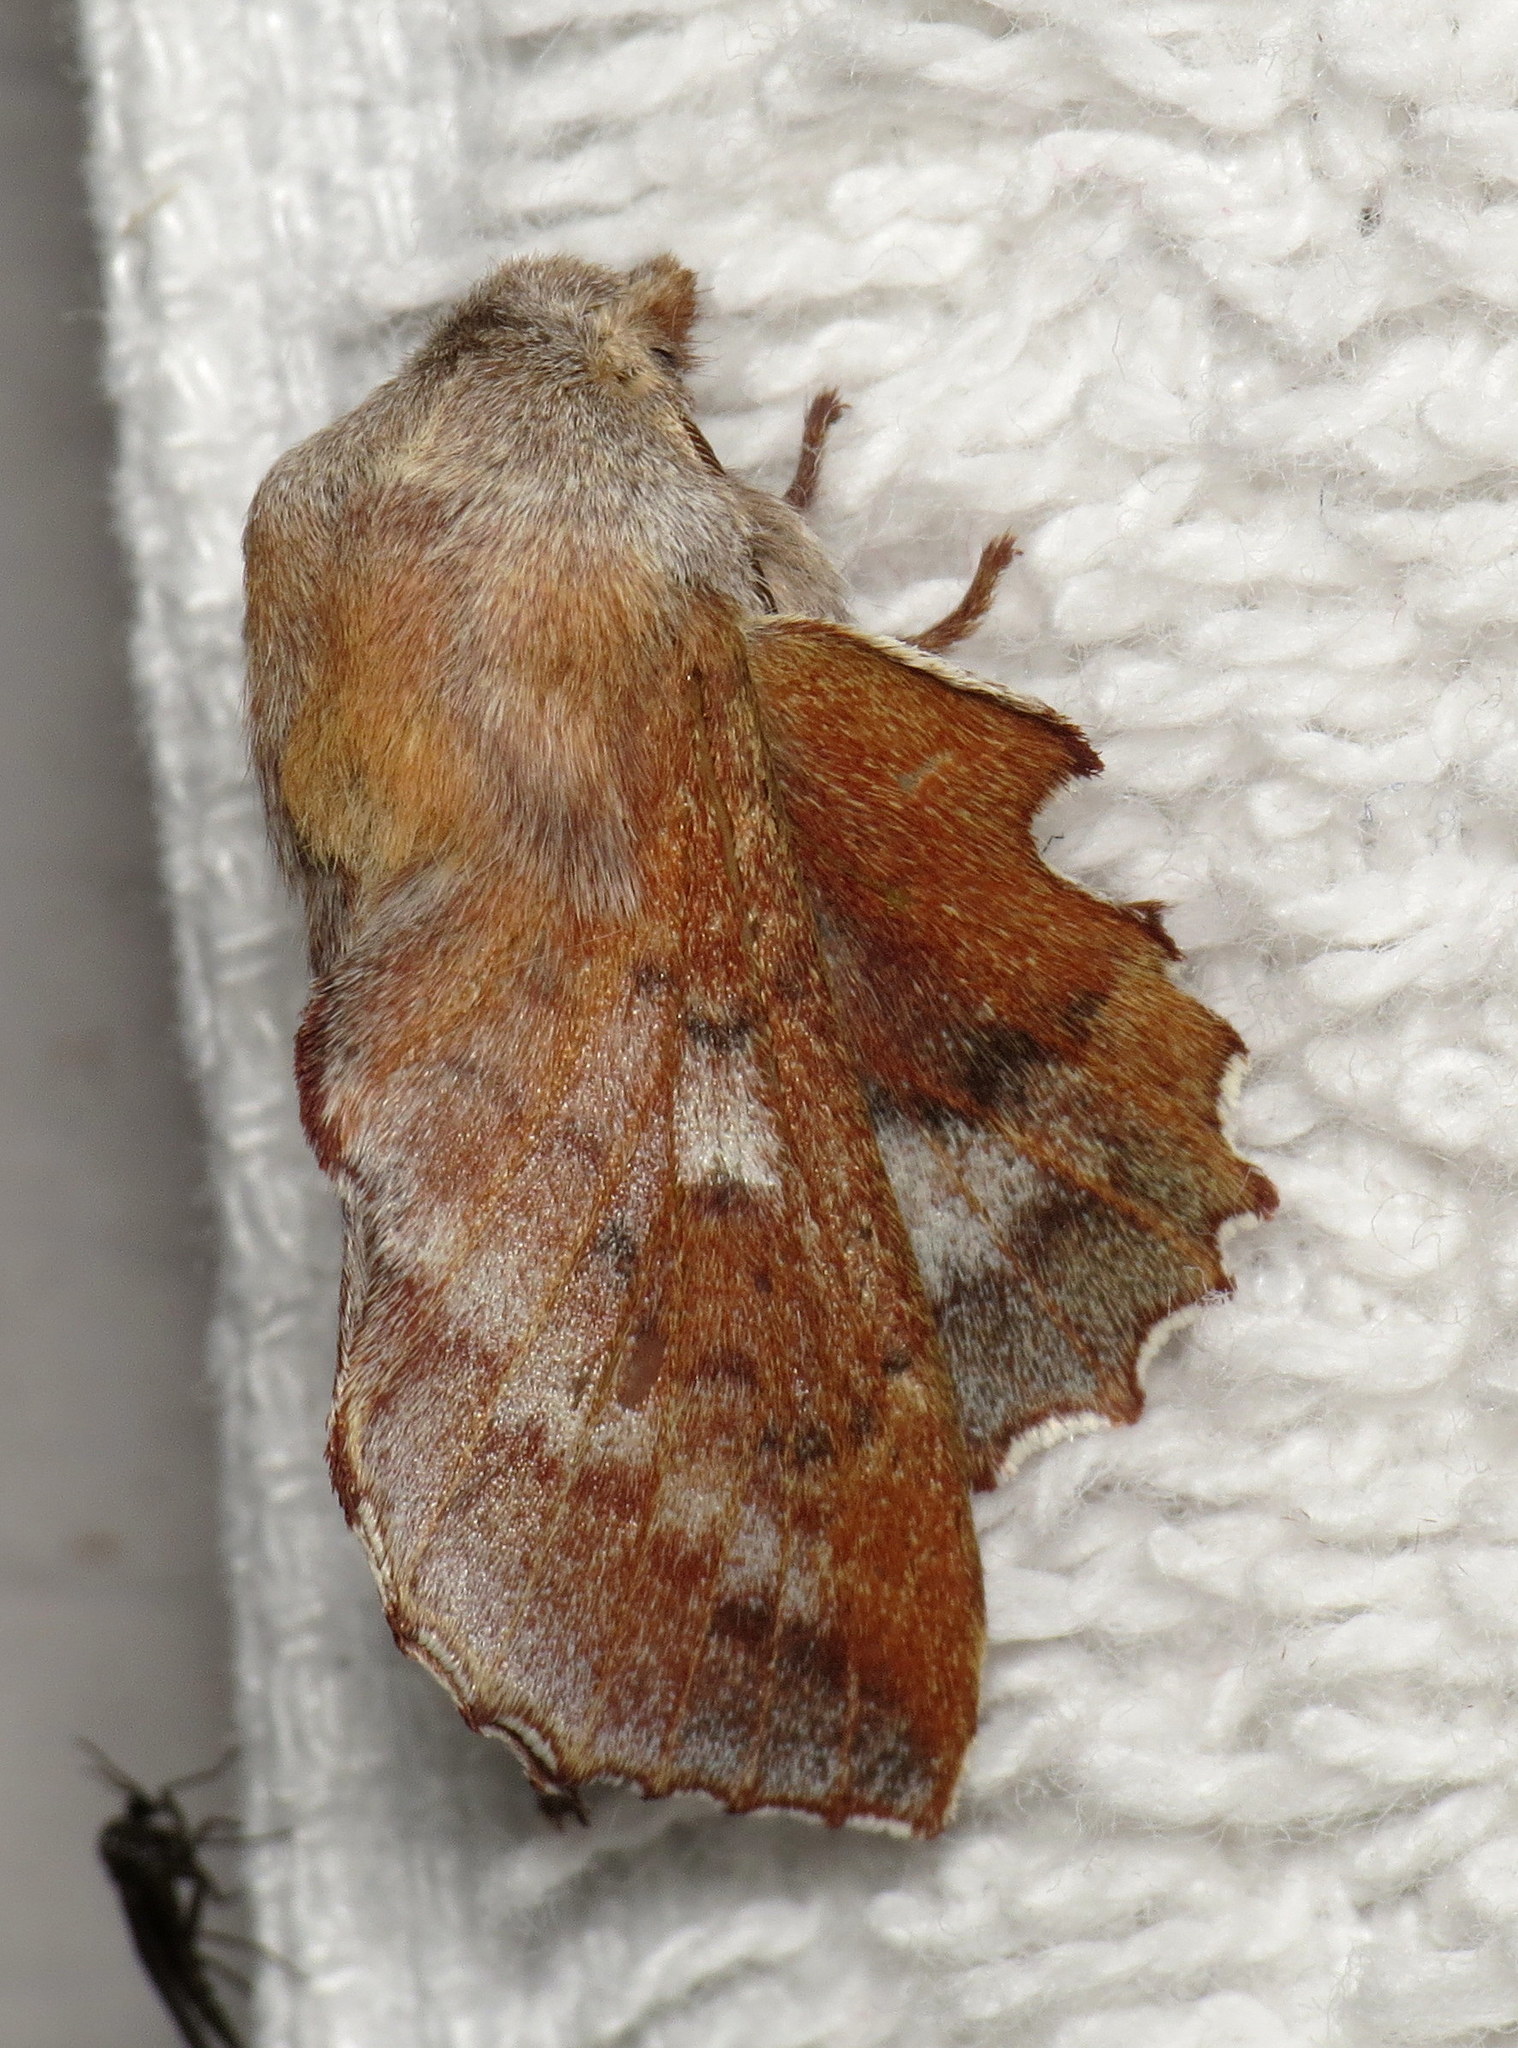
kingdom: Animalia
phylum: Arthropoda
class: Insecta
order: Lepidoptera
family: Lasiocampidae
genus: Phyllodesma
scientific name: Phyllodesma americana
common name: American lappet moth
